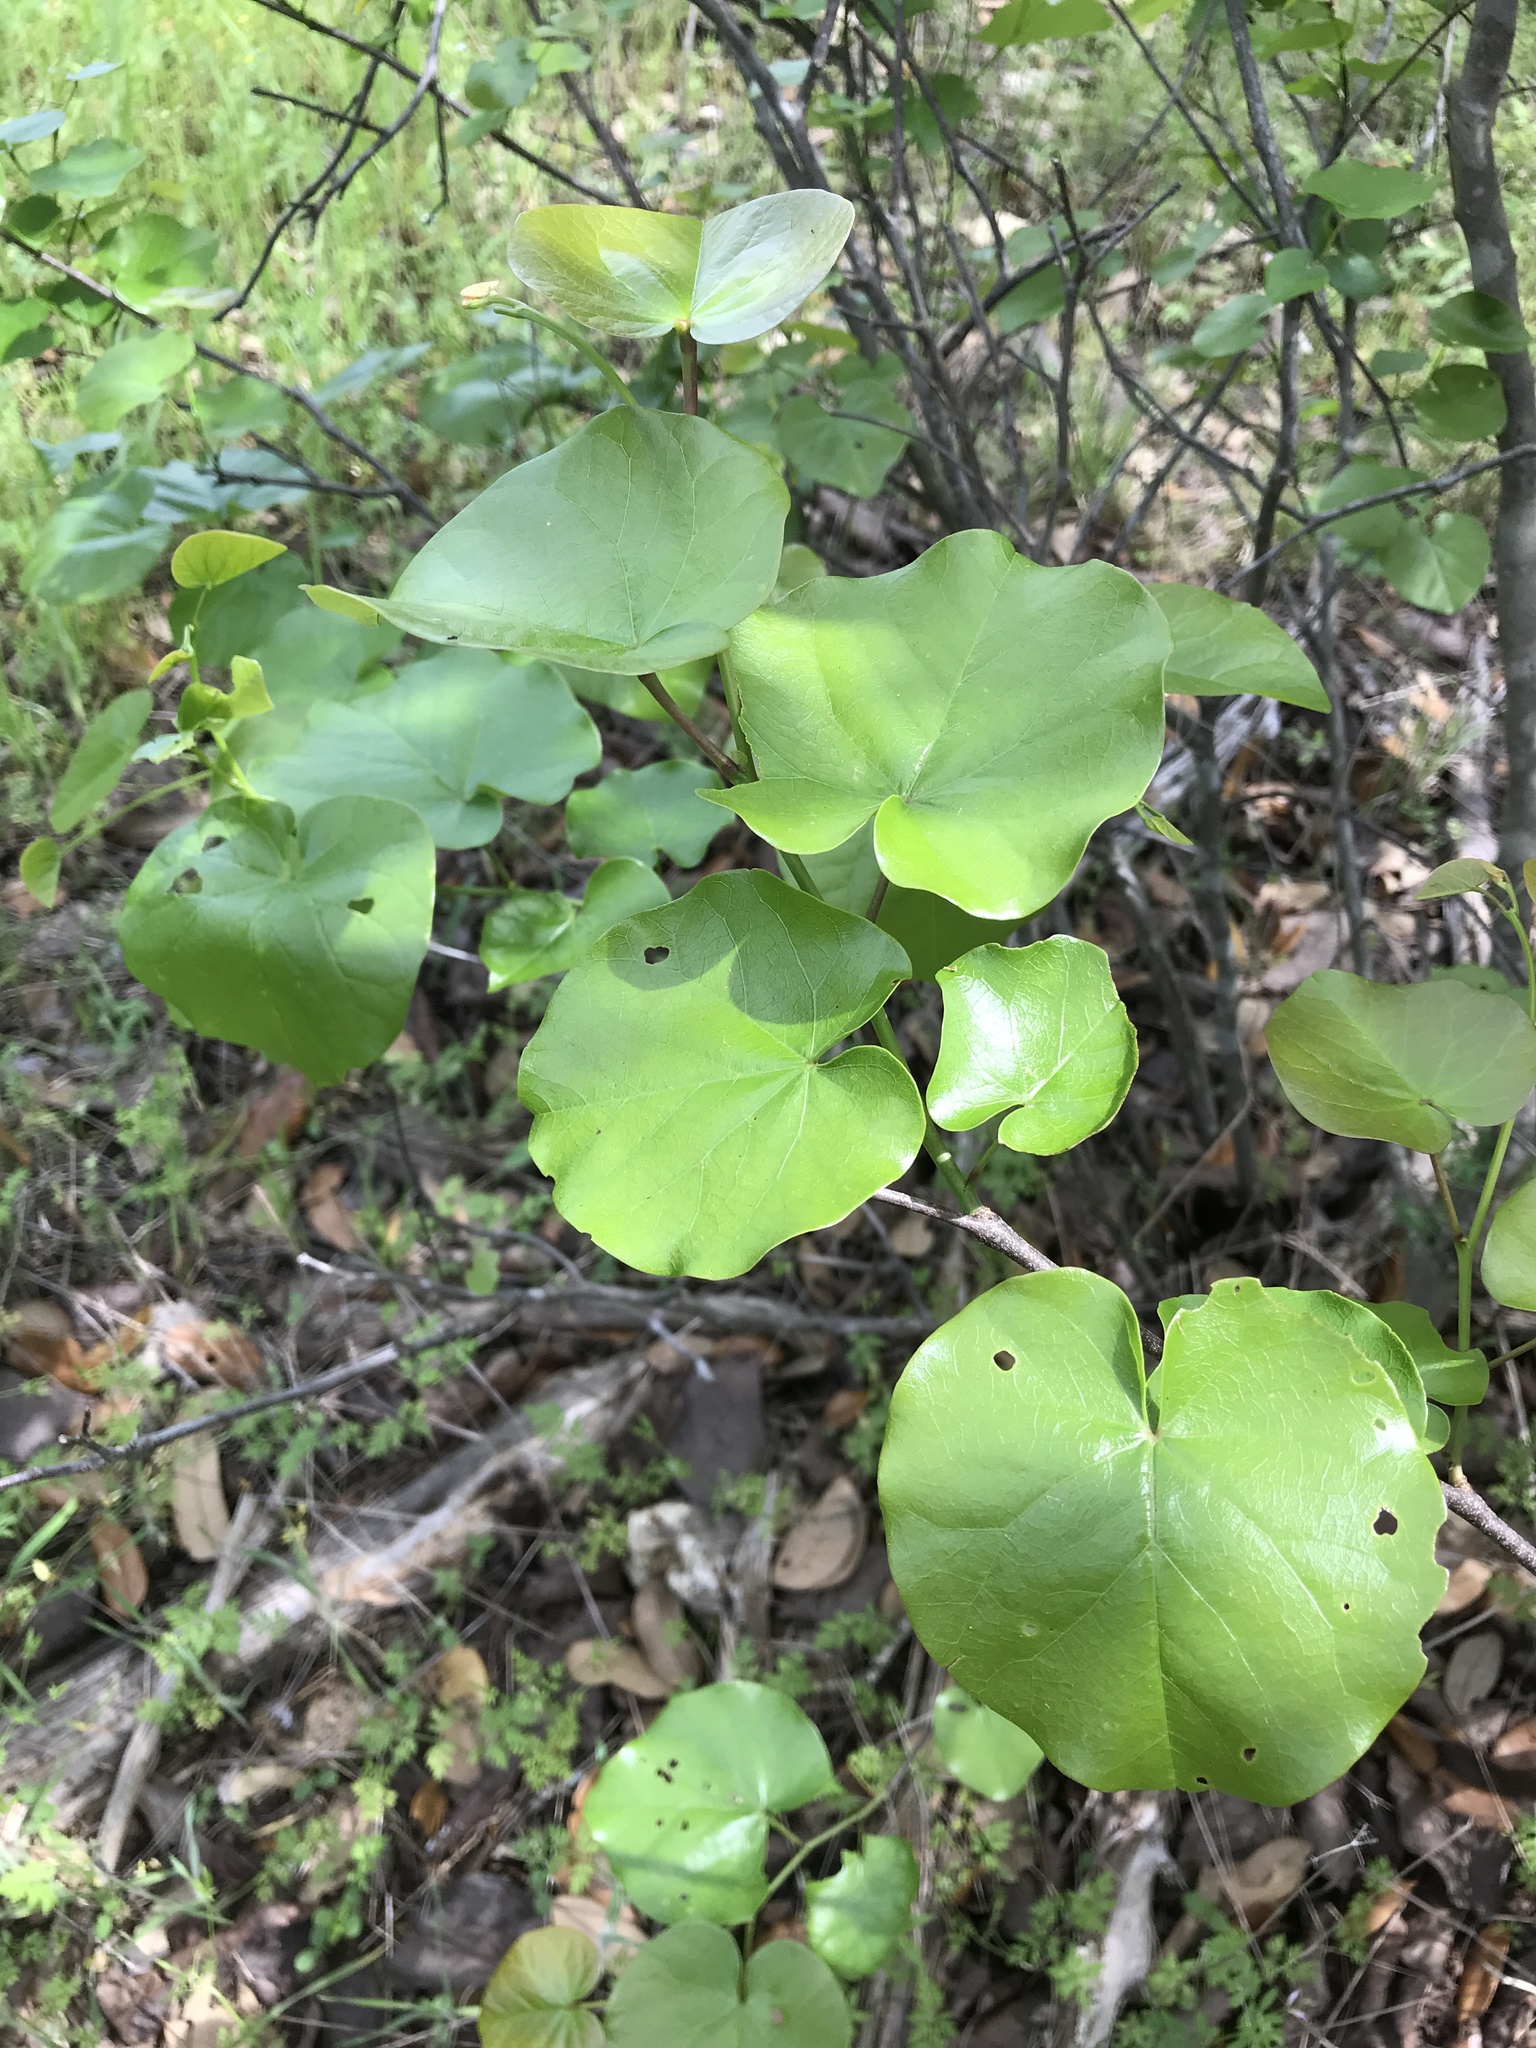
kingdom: Plantae
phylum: Tracheophyta
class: Magnoliopsida
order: Fabales
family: Fabaceae
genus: Cercis
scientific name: Cercis canadensis
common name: Eastern redbud
